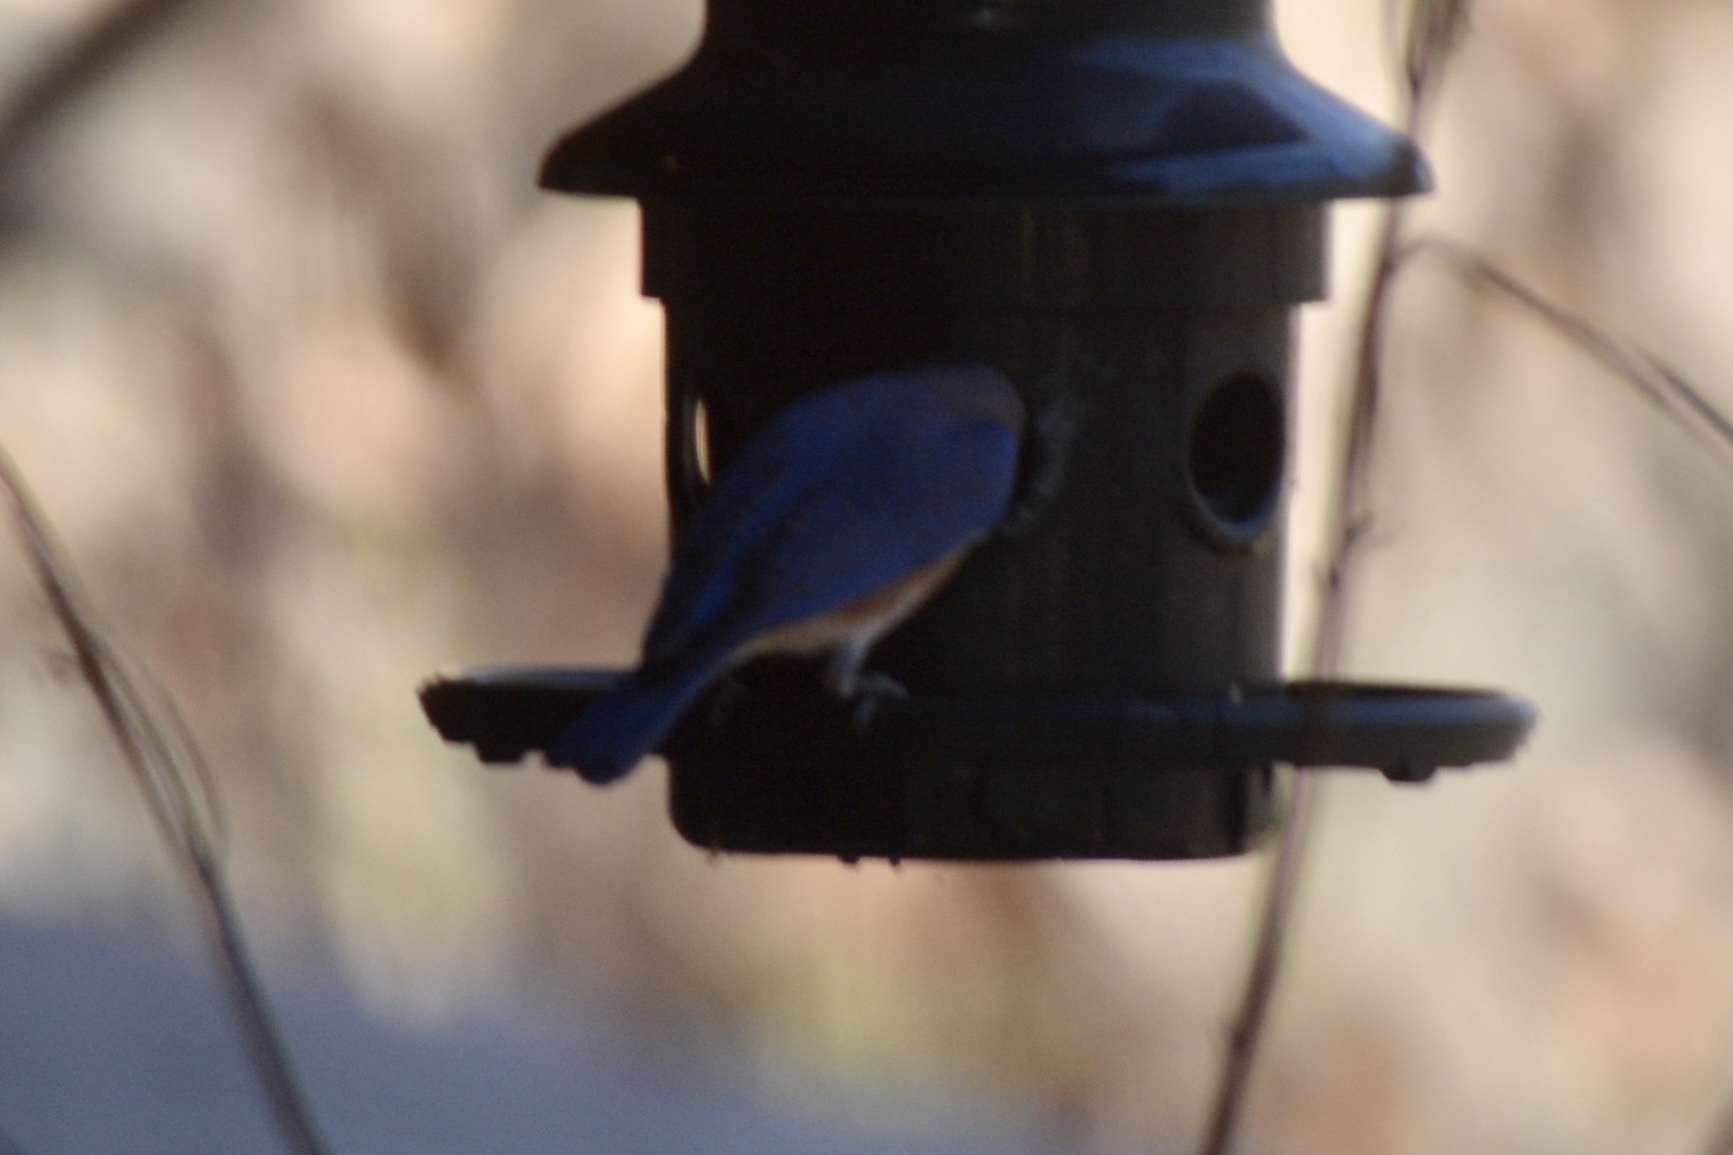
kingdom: Animalia
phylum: Chordata
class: Aves
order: Passeriformes
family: Turdidae
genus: Sialia
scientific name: Sialia sialis
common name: Eastern bluebird
